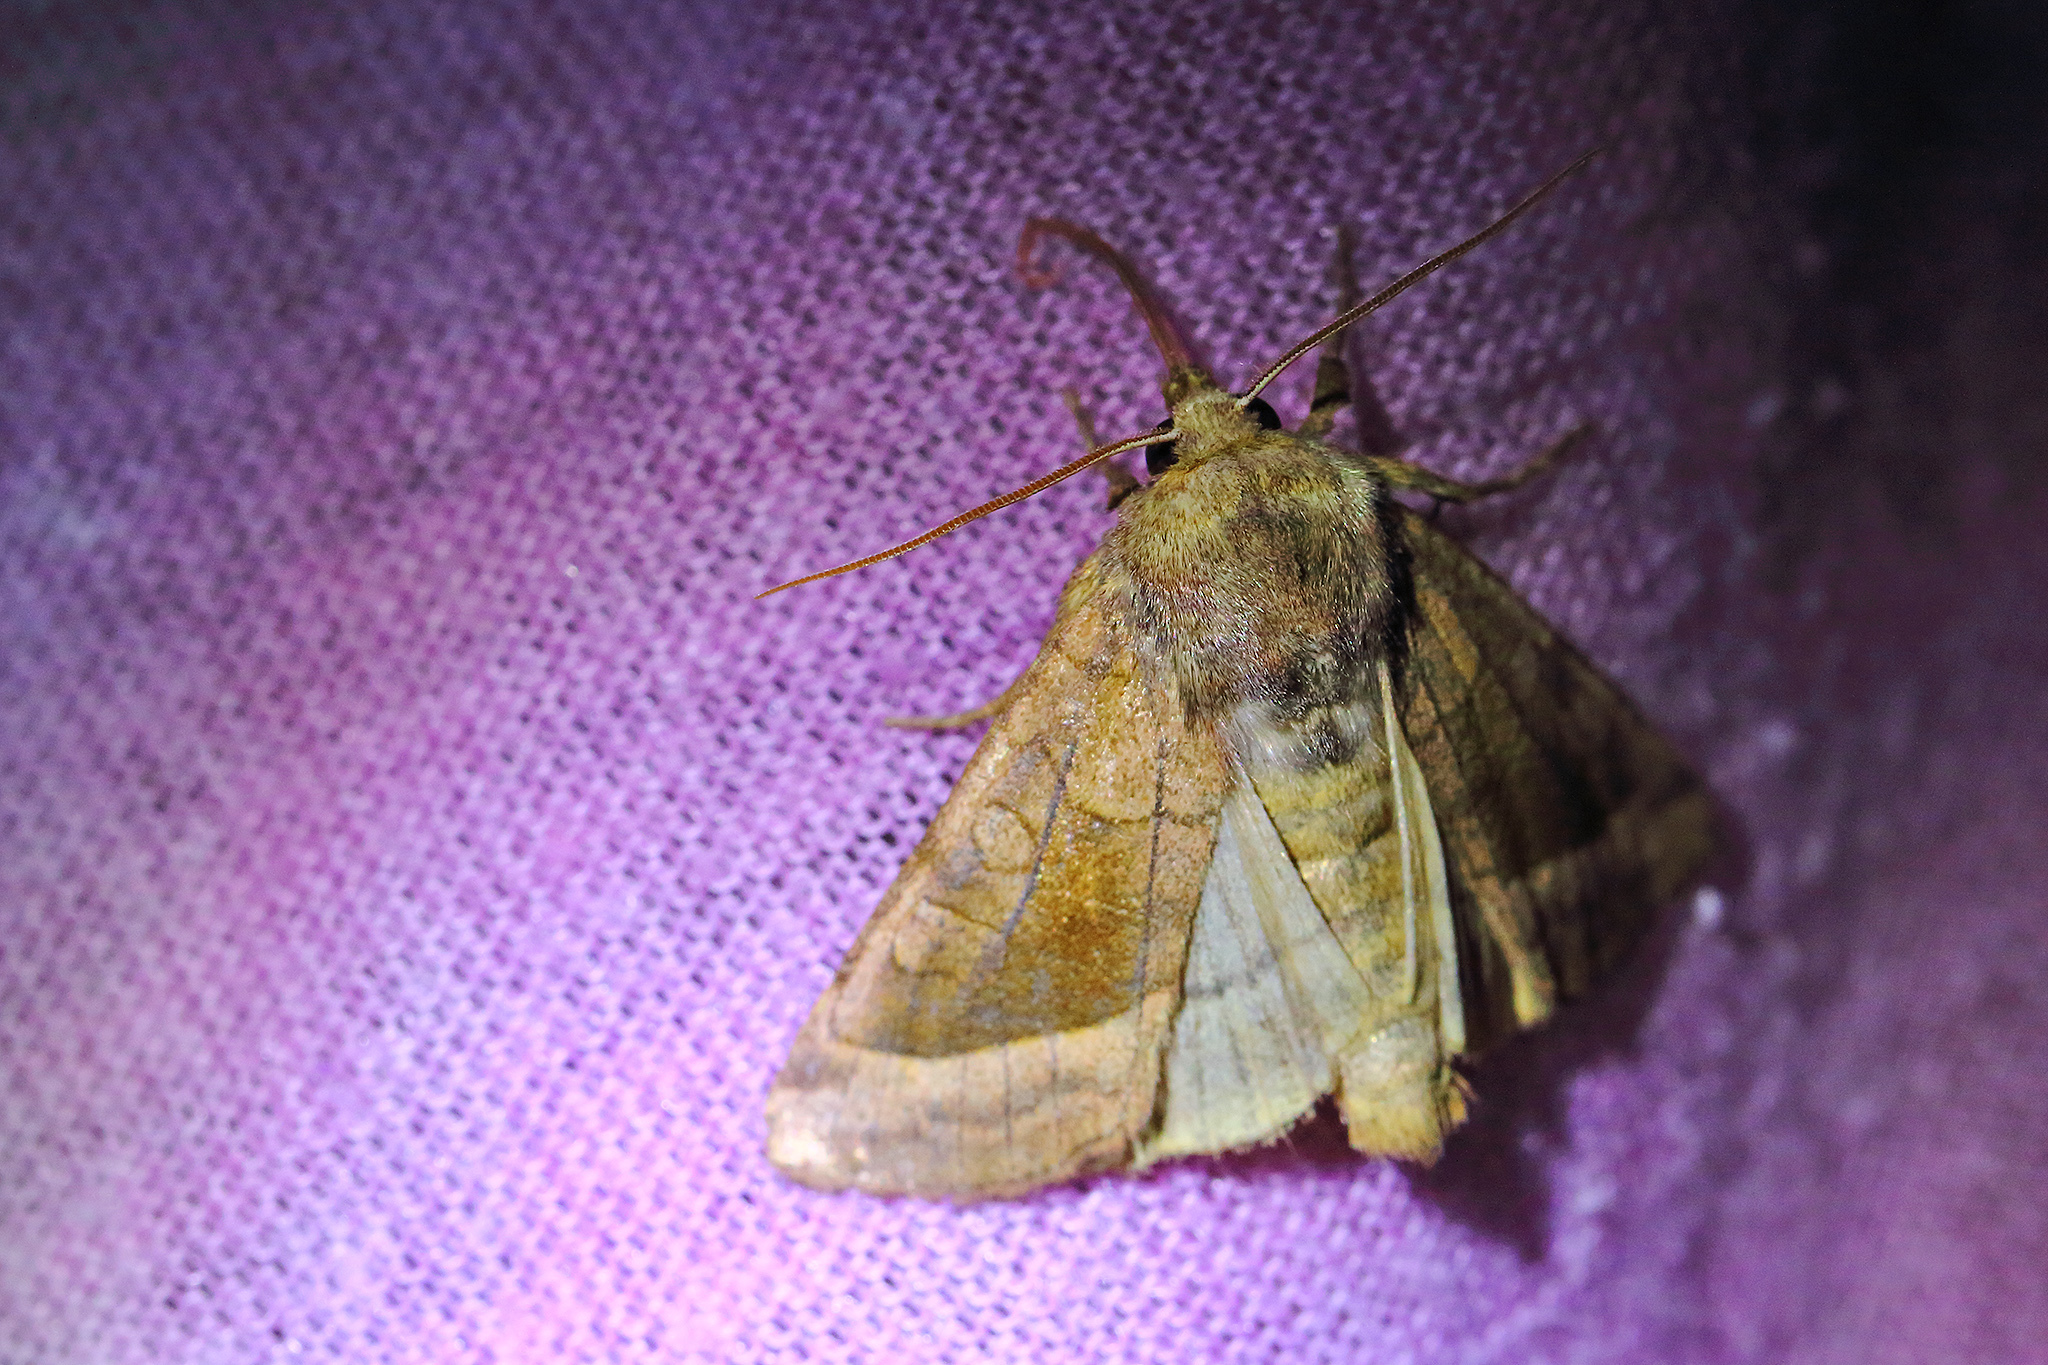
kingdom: Animalia
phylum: Arthropoda
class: Insecta
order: Lepidoptera
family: Noctuidae
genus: Hydraecia
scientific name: Hydraecia micacea
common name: Rosy rustic
